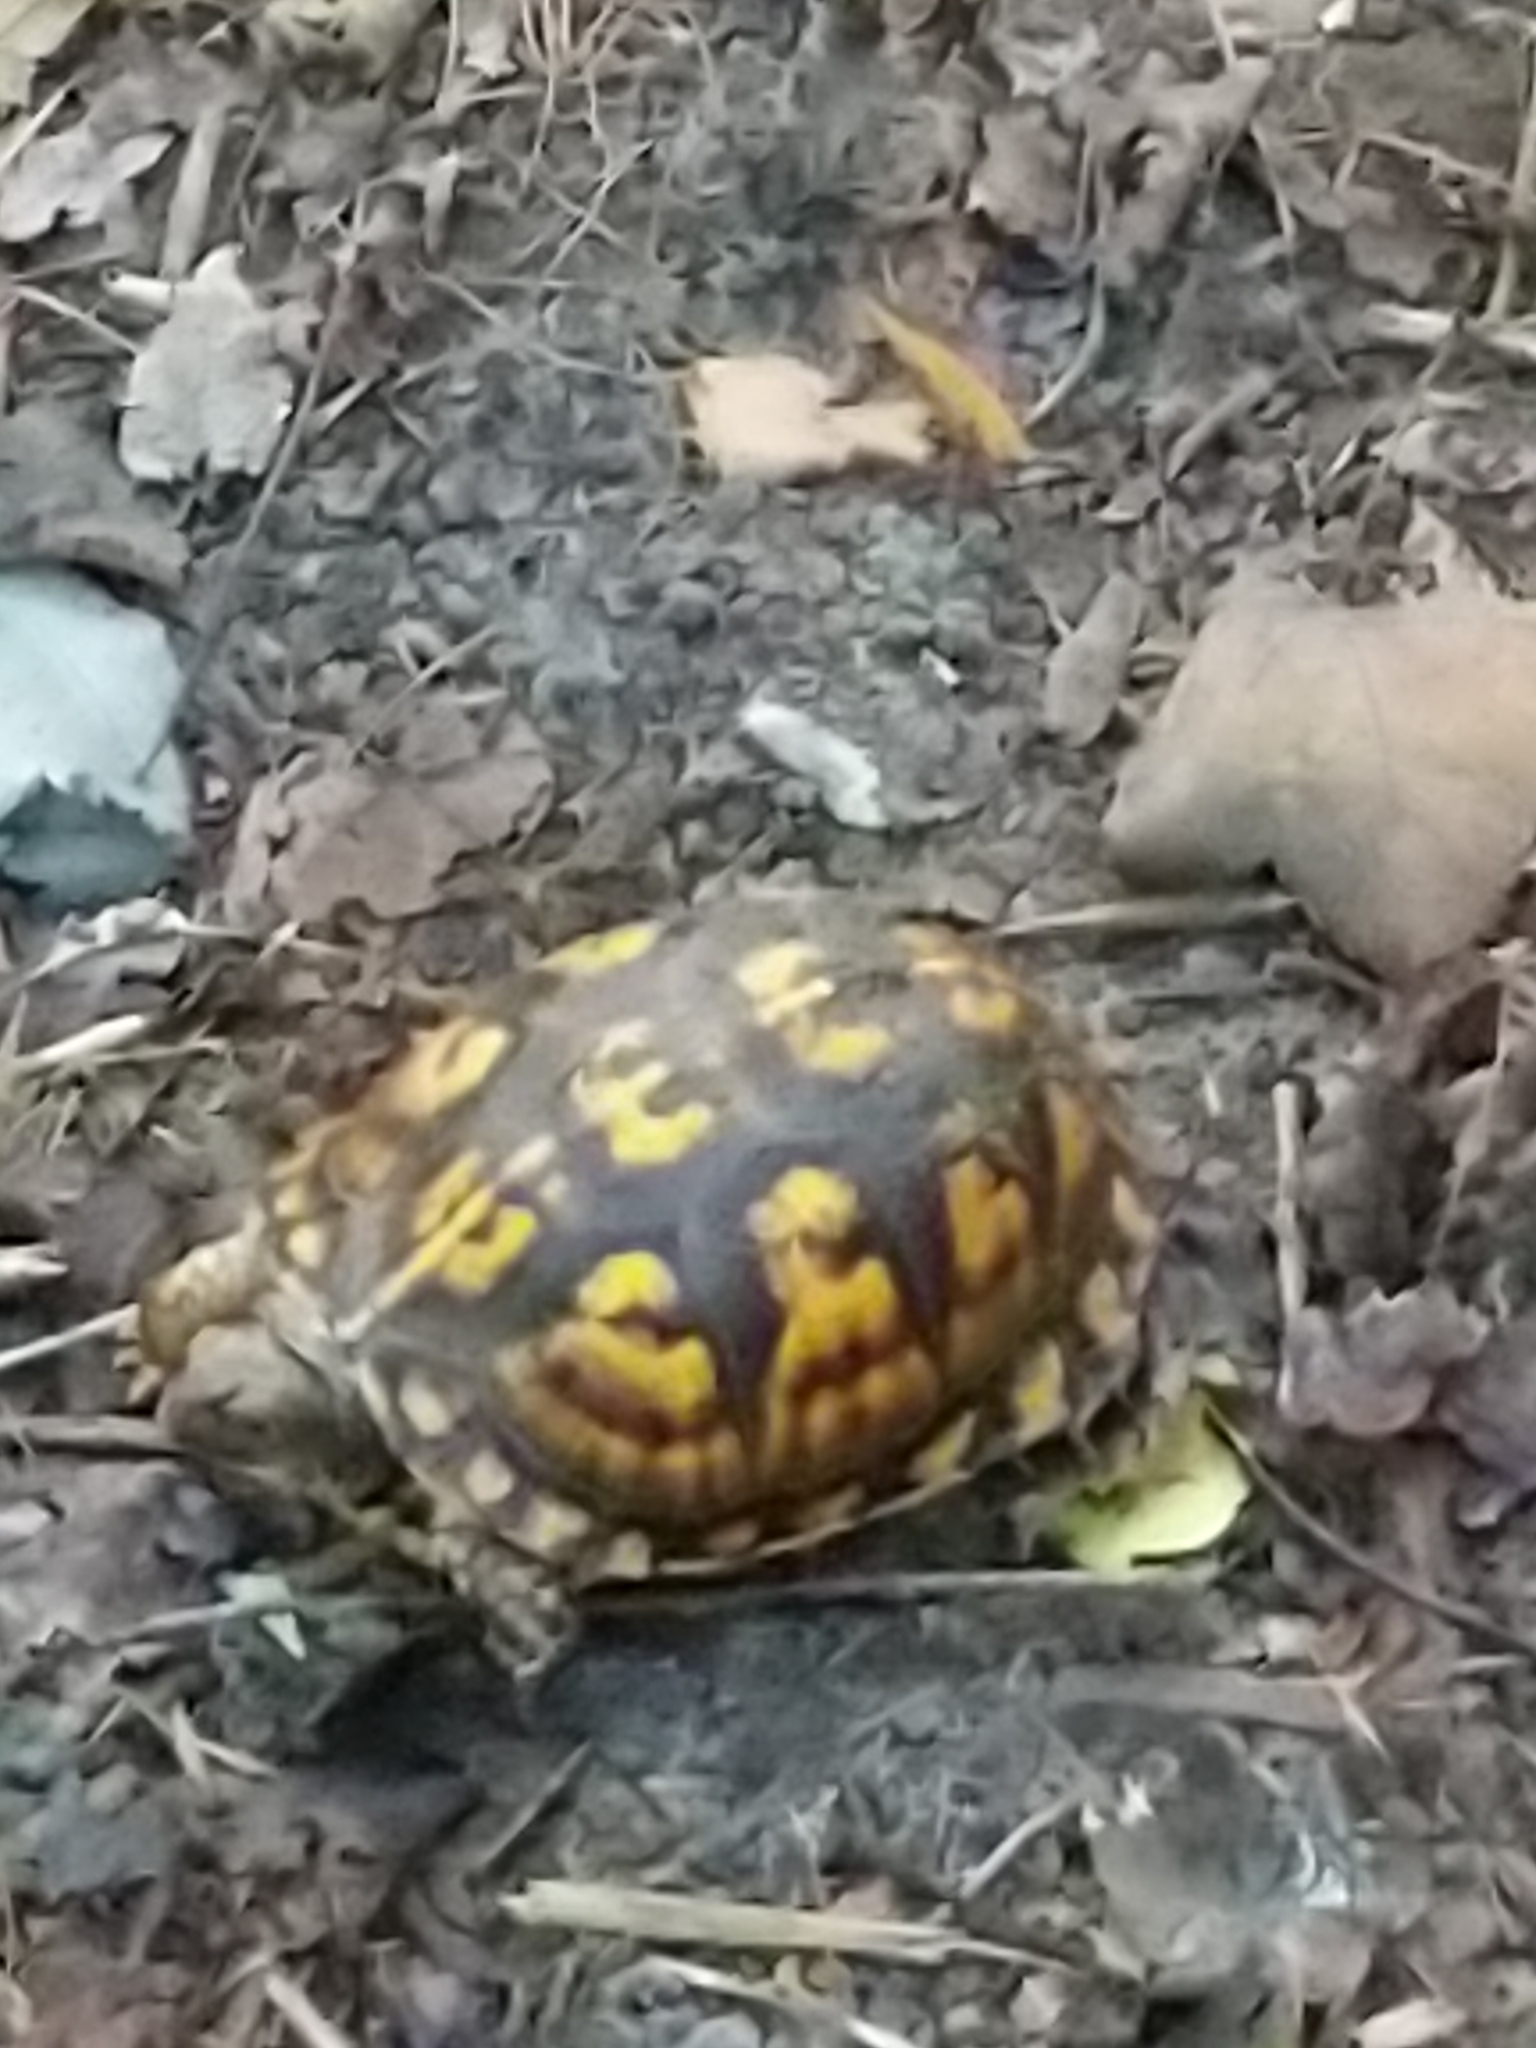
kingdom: Animalia
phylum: Chordata
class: Testudines
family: Emydidae
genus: Terrapene
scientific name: Terrapene carolina
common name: Common box turtle
